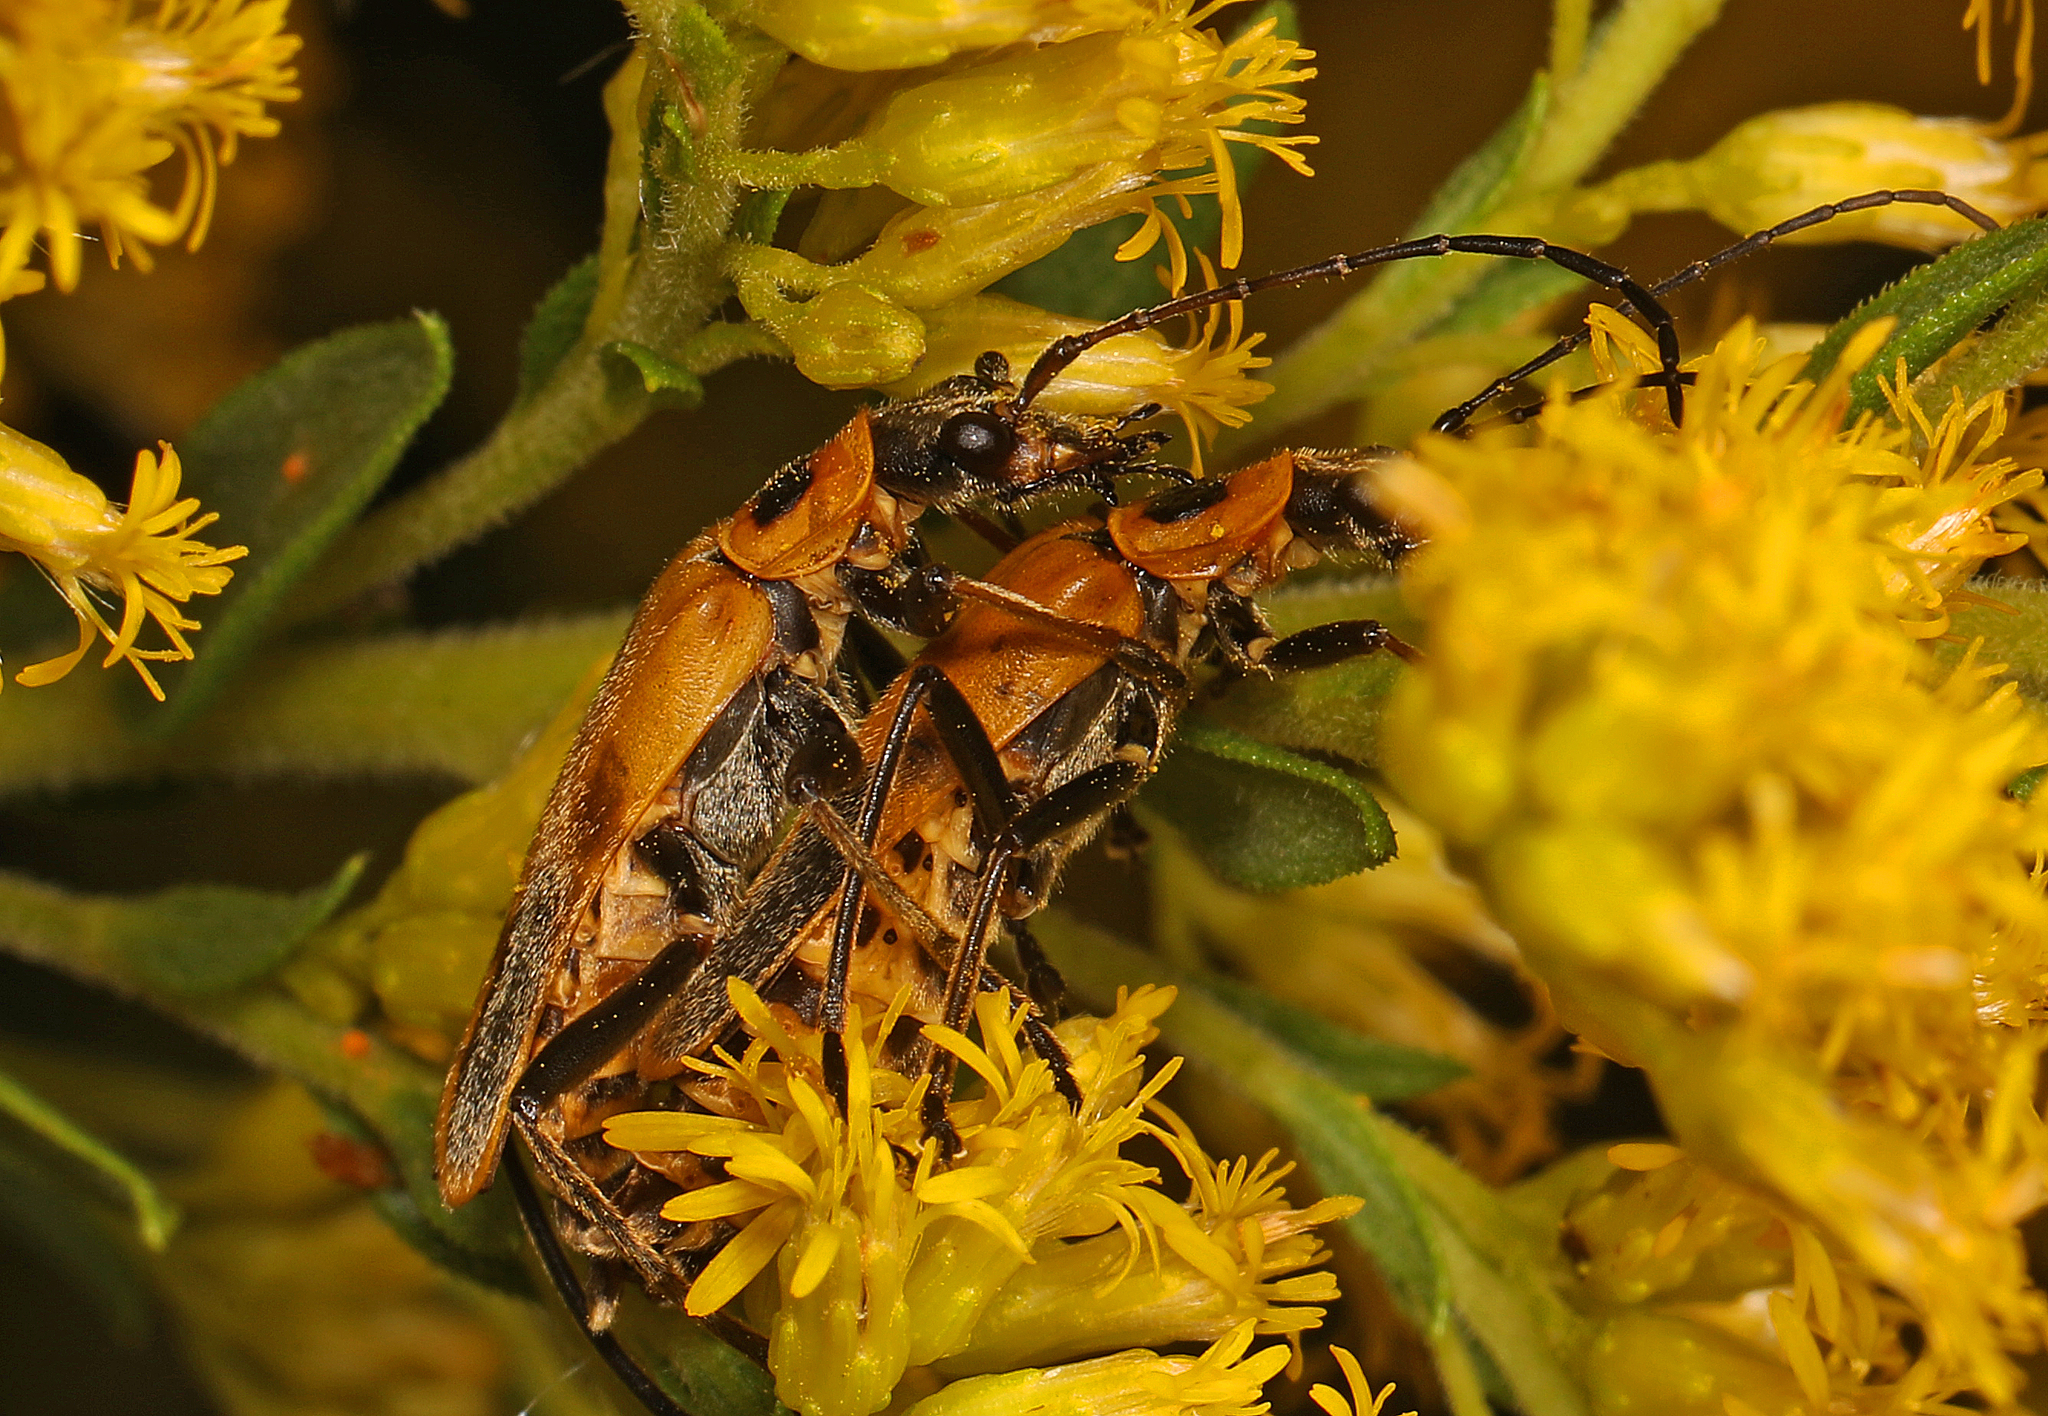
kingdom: Animalia
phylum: Arthropoda
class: Insecta
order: Coleoptera
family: Cantharidae
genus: Chauliognathus
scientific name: Chauliognathus pensylvanicus
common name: Goldenrod soldier beetle
